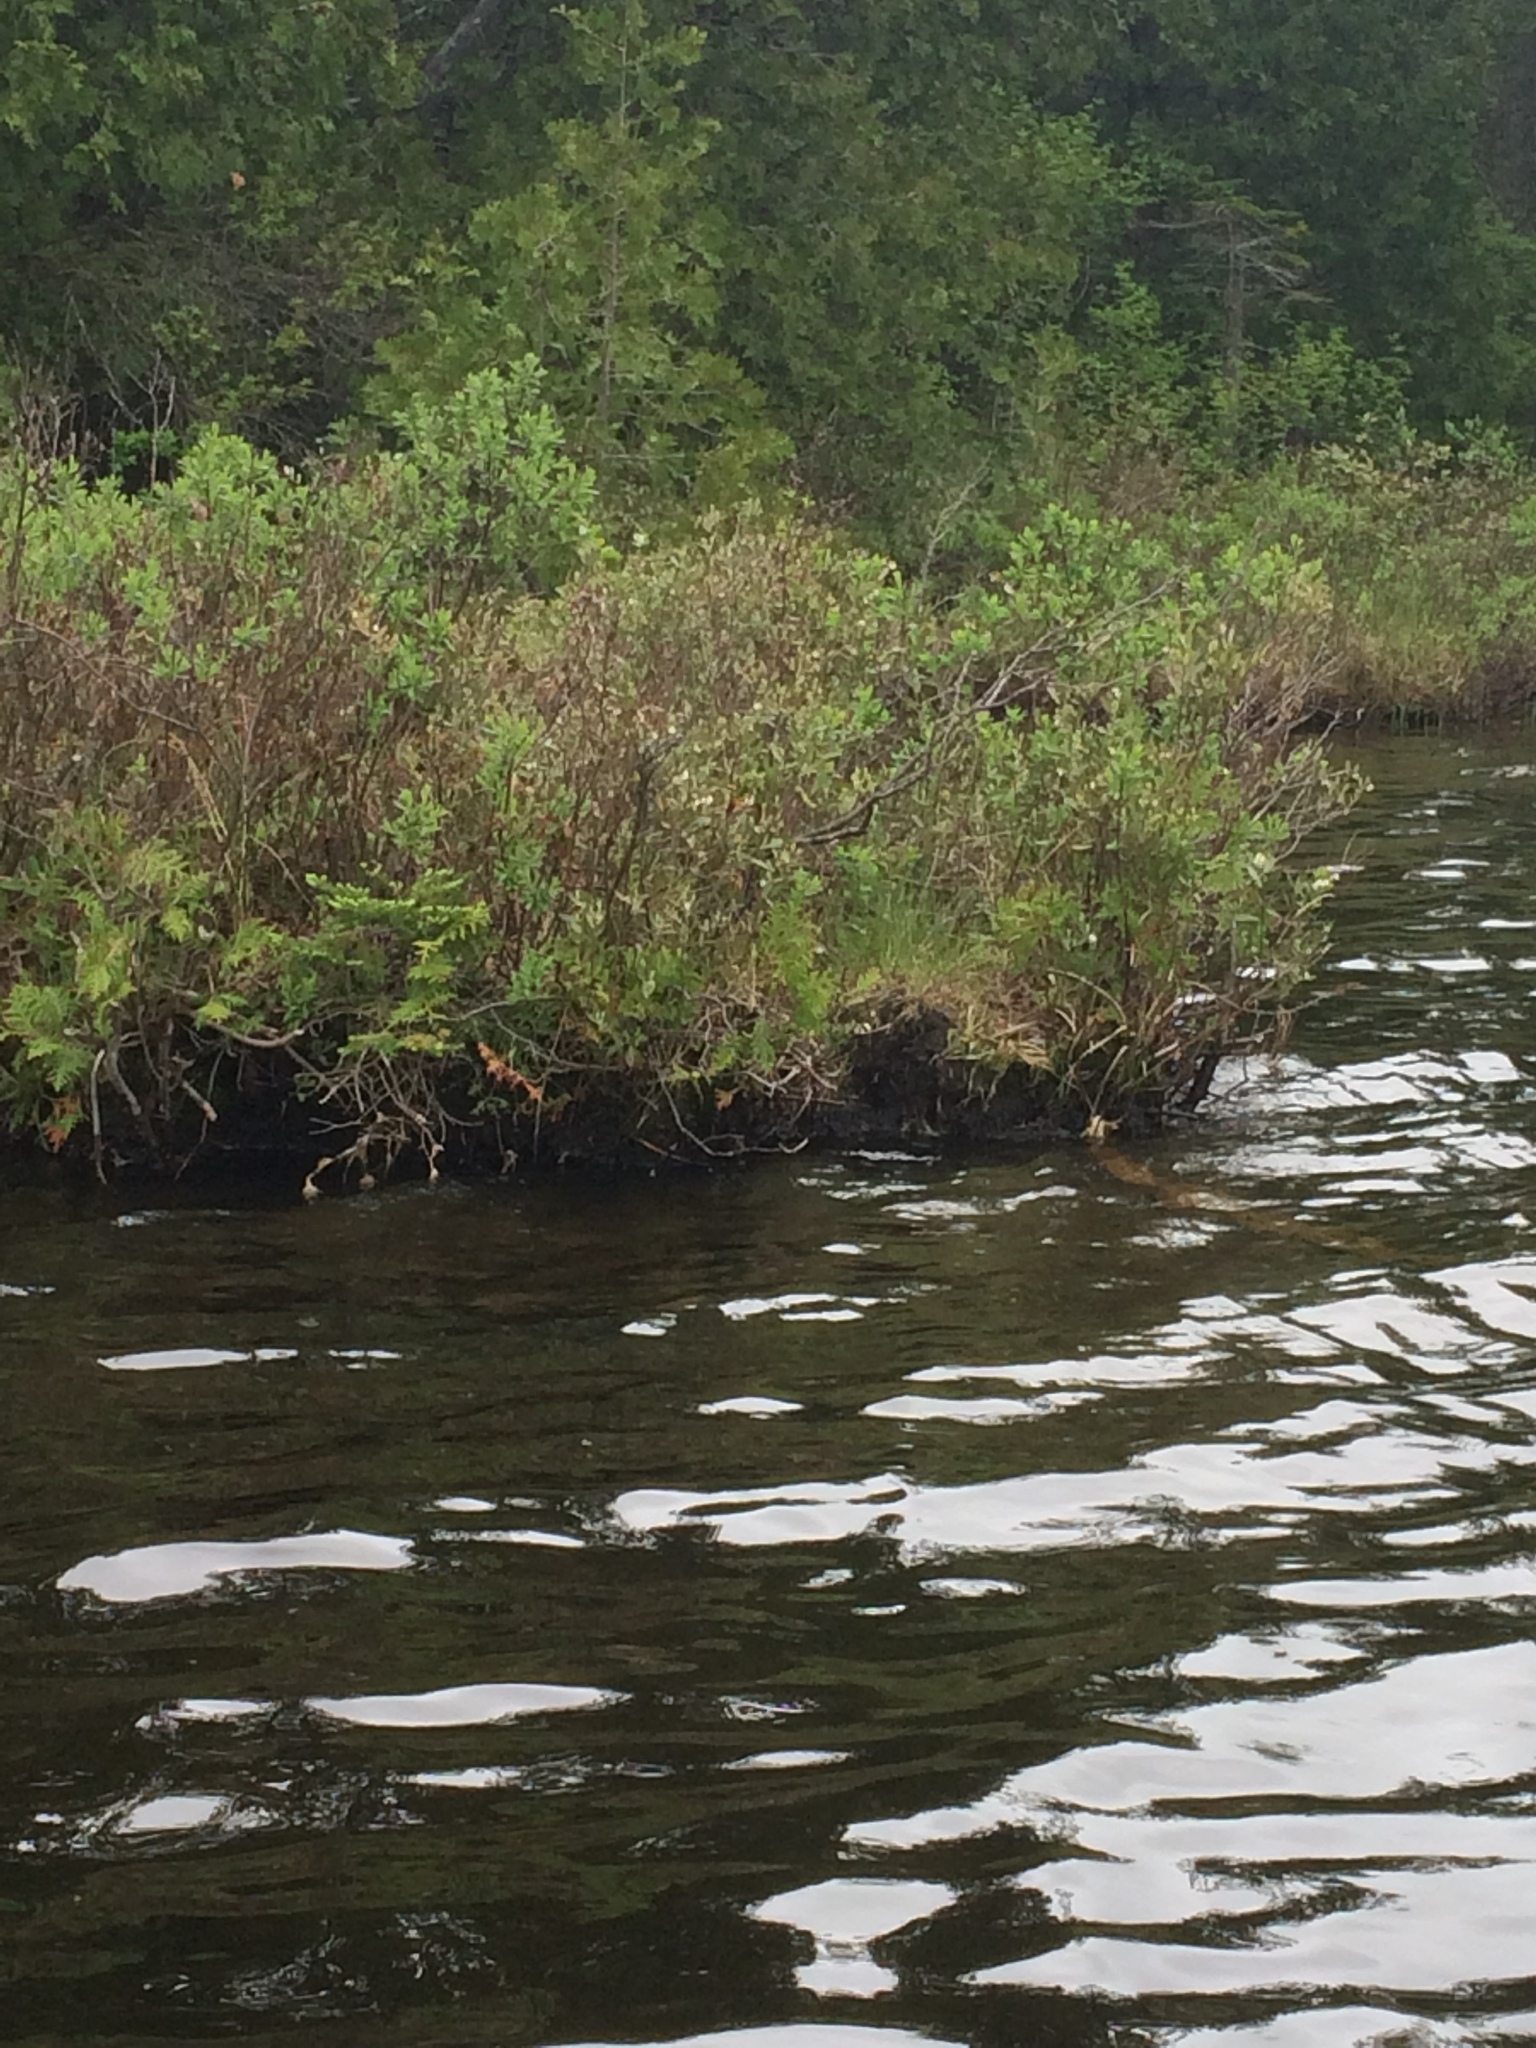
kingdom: Plantae
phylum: Tracheophyta
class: Magnoliopsida
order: Ericales
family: Ericaceae
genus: Chamaedaphne
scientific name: Chamaedaphne calyculata
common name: Leatherleaf
